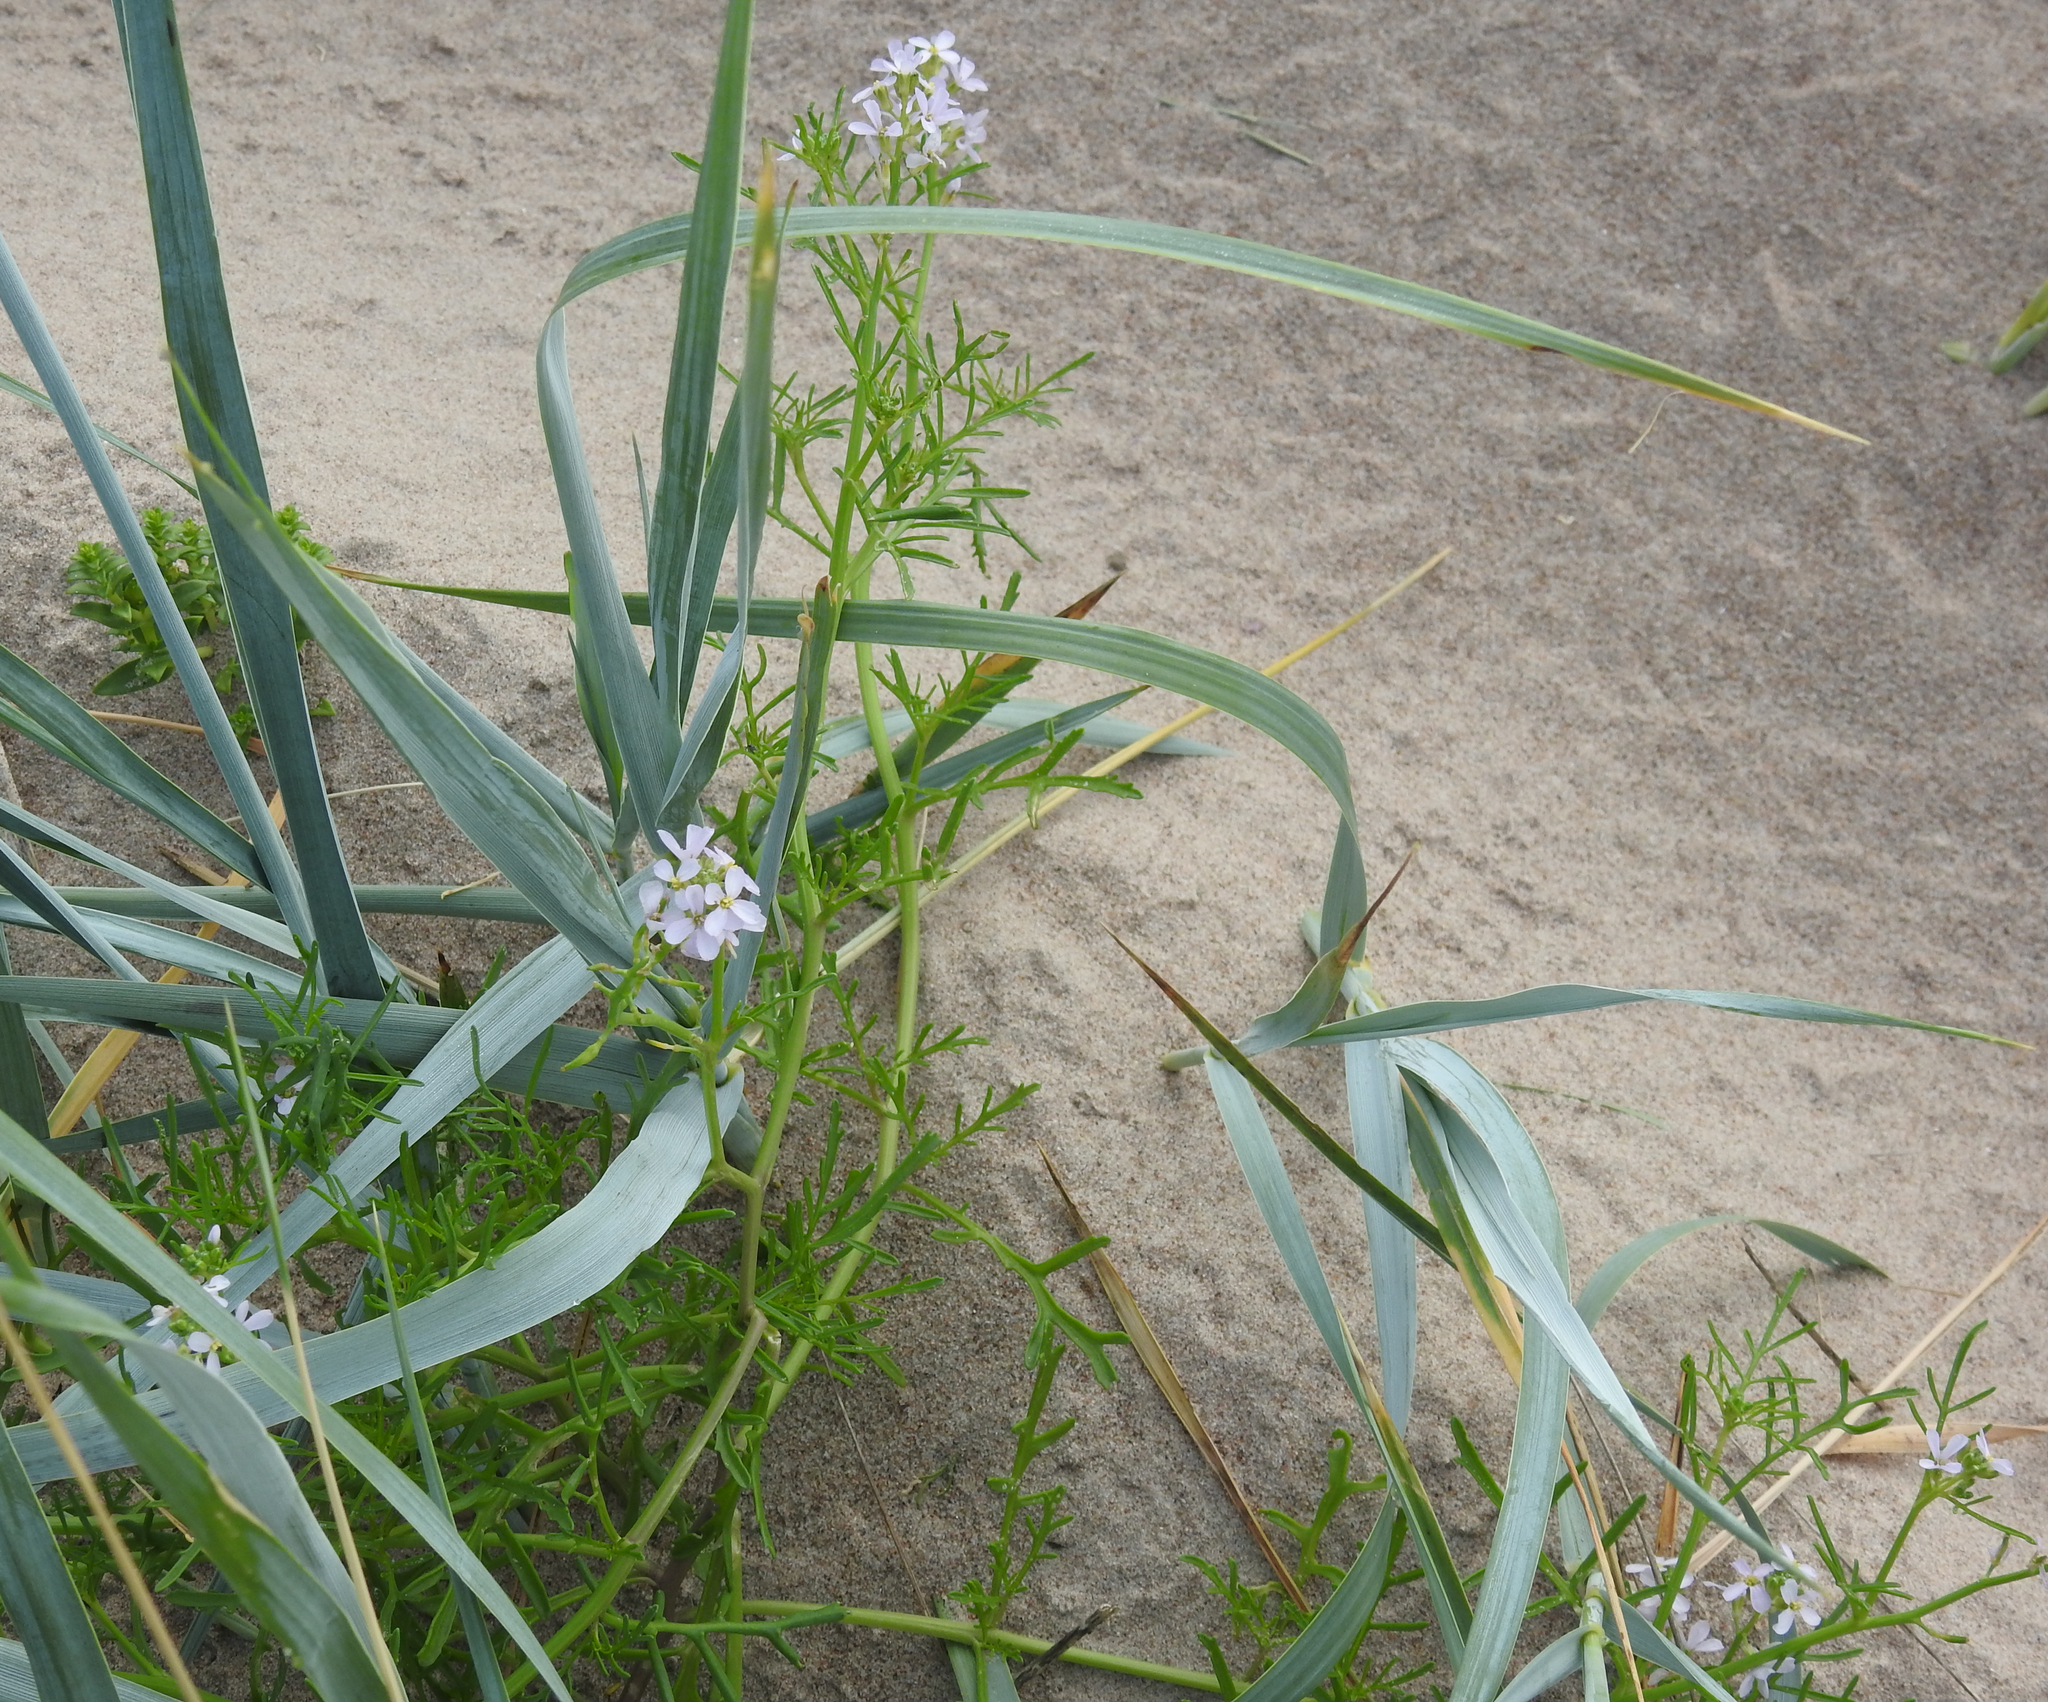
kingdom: Plantae
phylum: Tracheophyta
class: Magnoliopsida
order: Brassicales
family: Brassicaceae
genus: Cakile
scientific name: Cakile maritima
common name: Sea rocket
